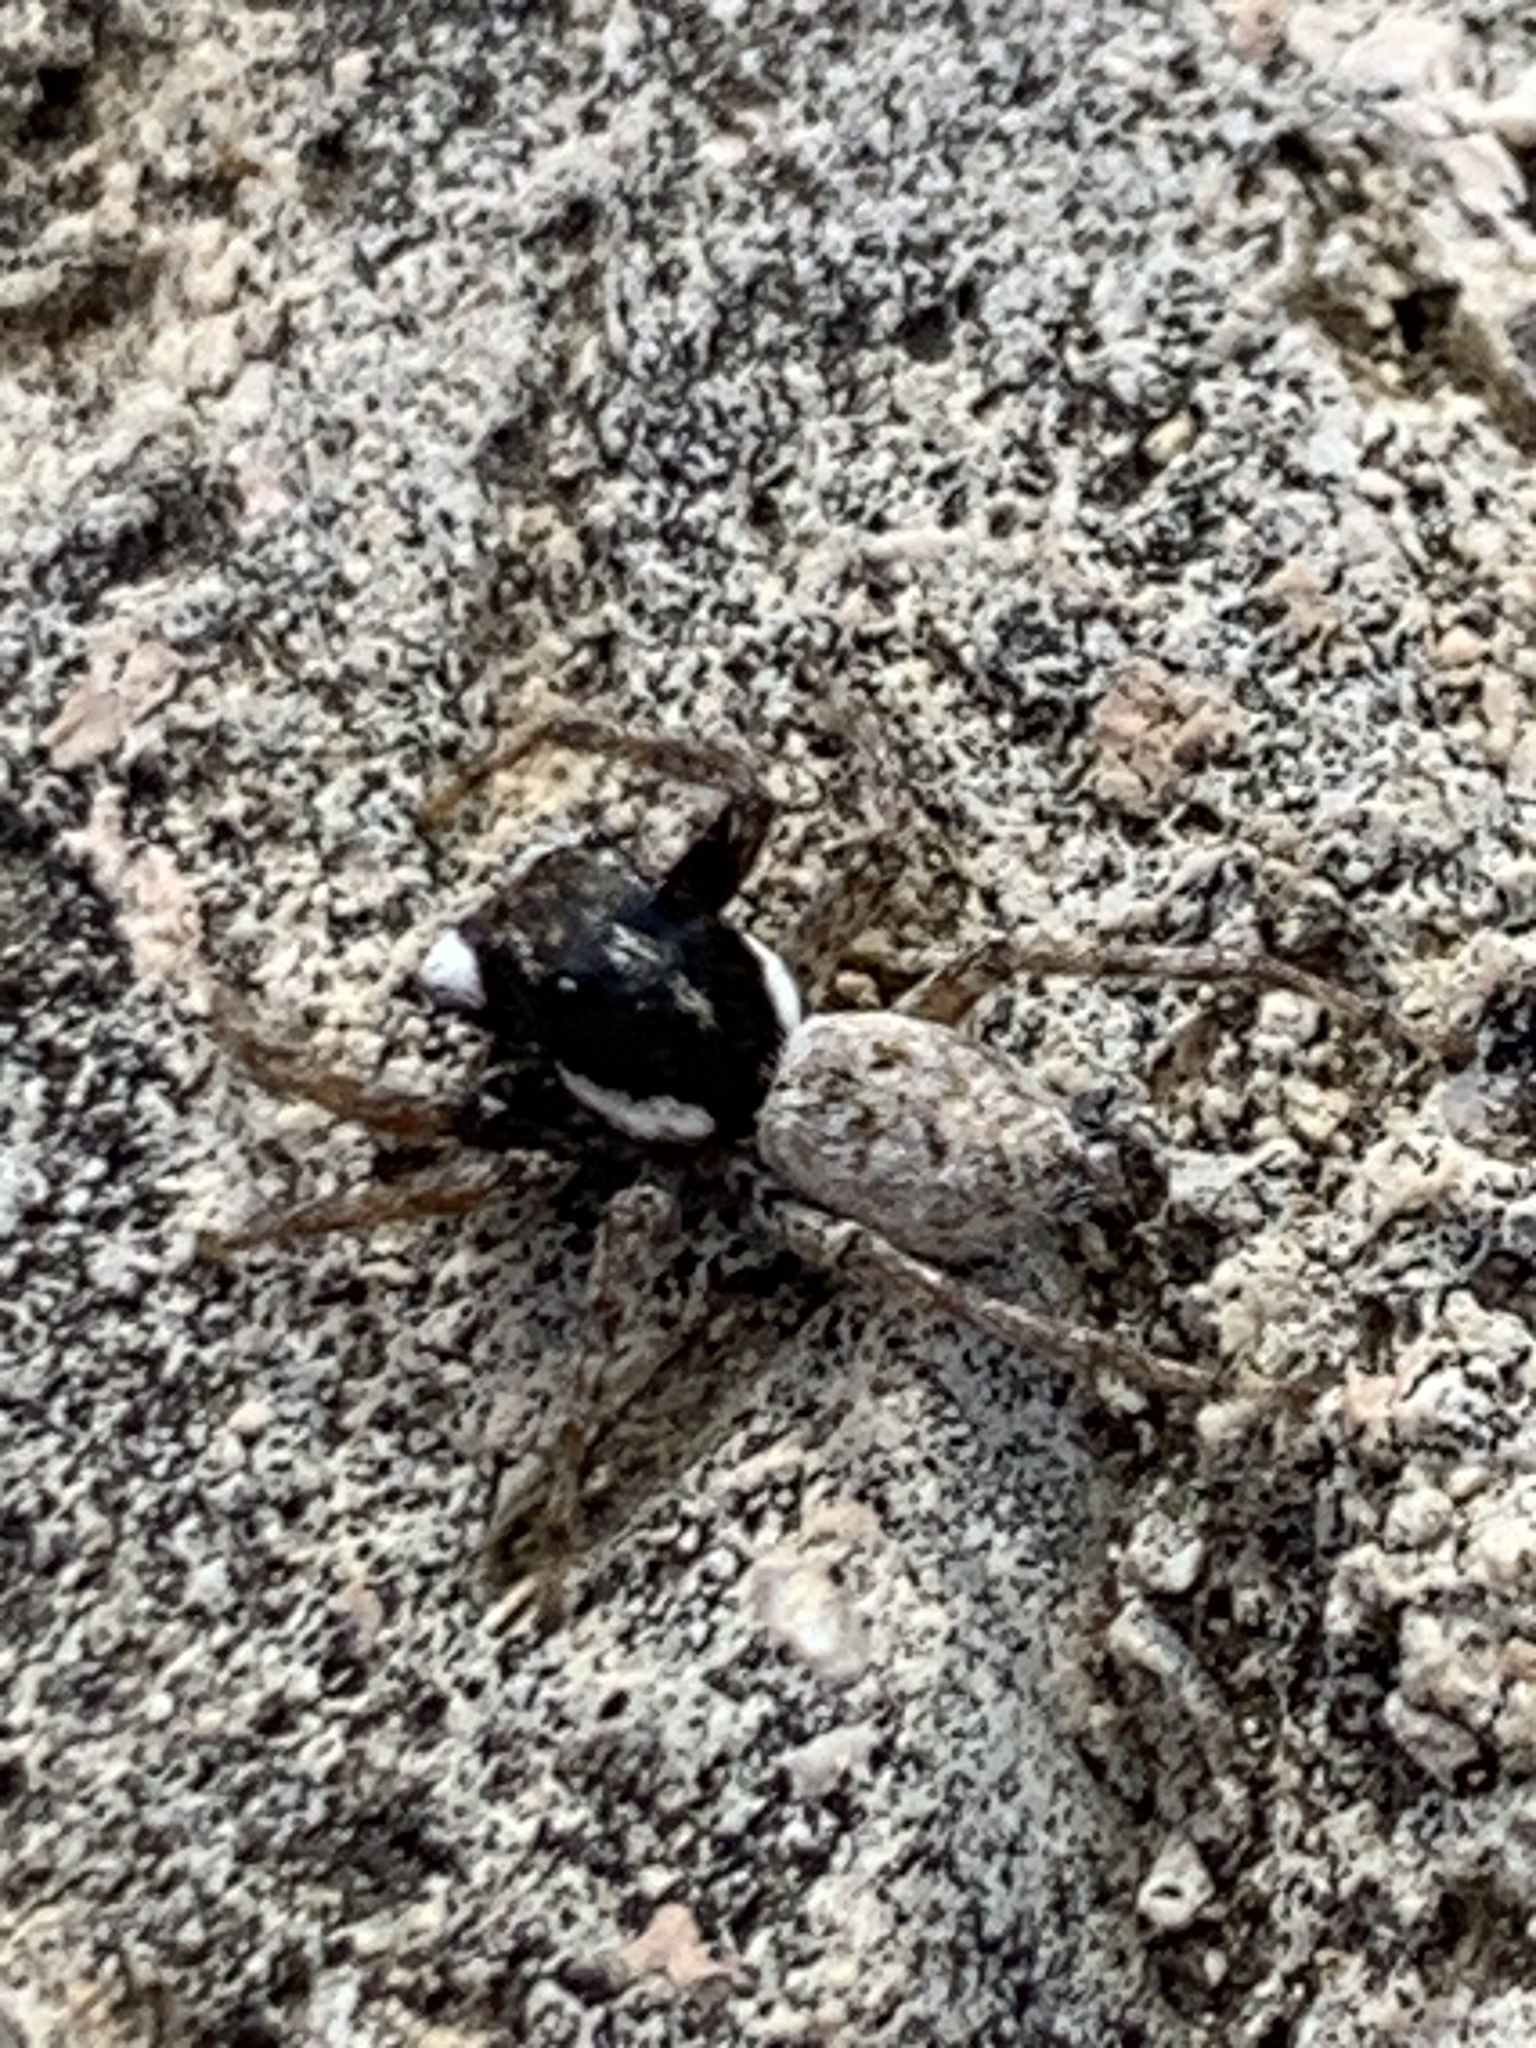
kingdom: Animalia
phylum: Arthropoda
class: Arachnida
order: Araneae
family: Salticidae
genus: Menemerus
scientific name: Menemerus semilimbatus
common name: Jumping spider
